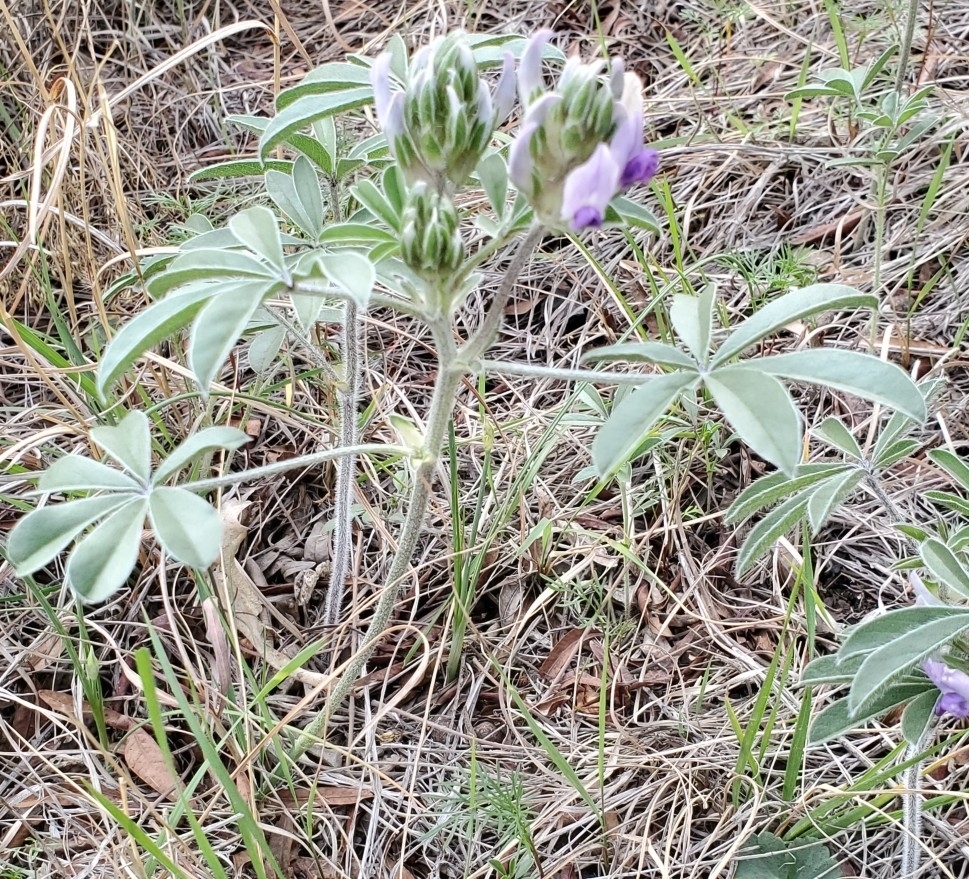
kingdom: Plantae
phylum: Tracheophyta
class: Magnoliopsida
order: Fabales
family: Fabaceae
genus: Pediomelum
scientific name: Pediomelum latestipulatum
